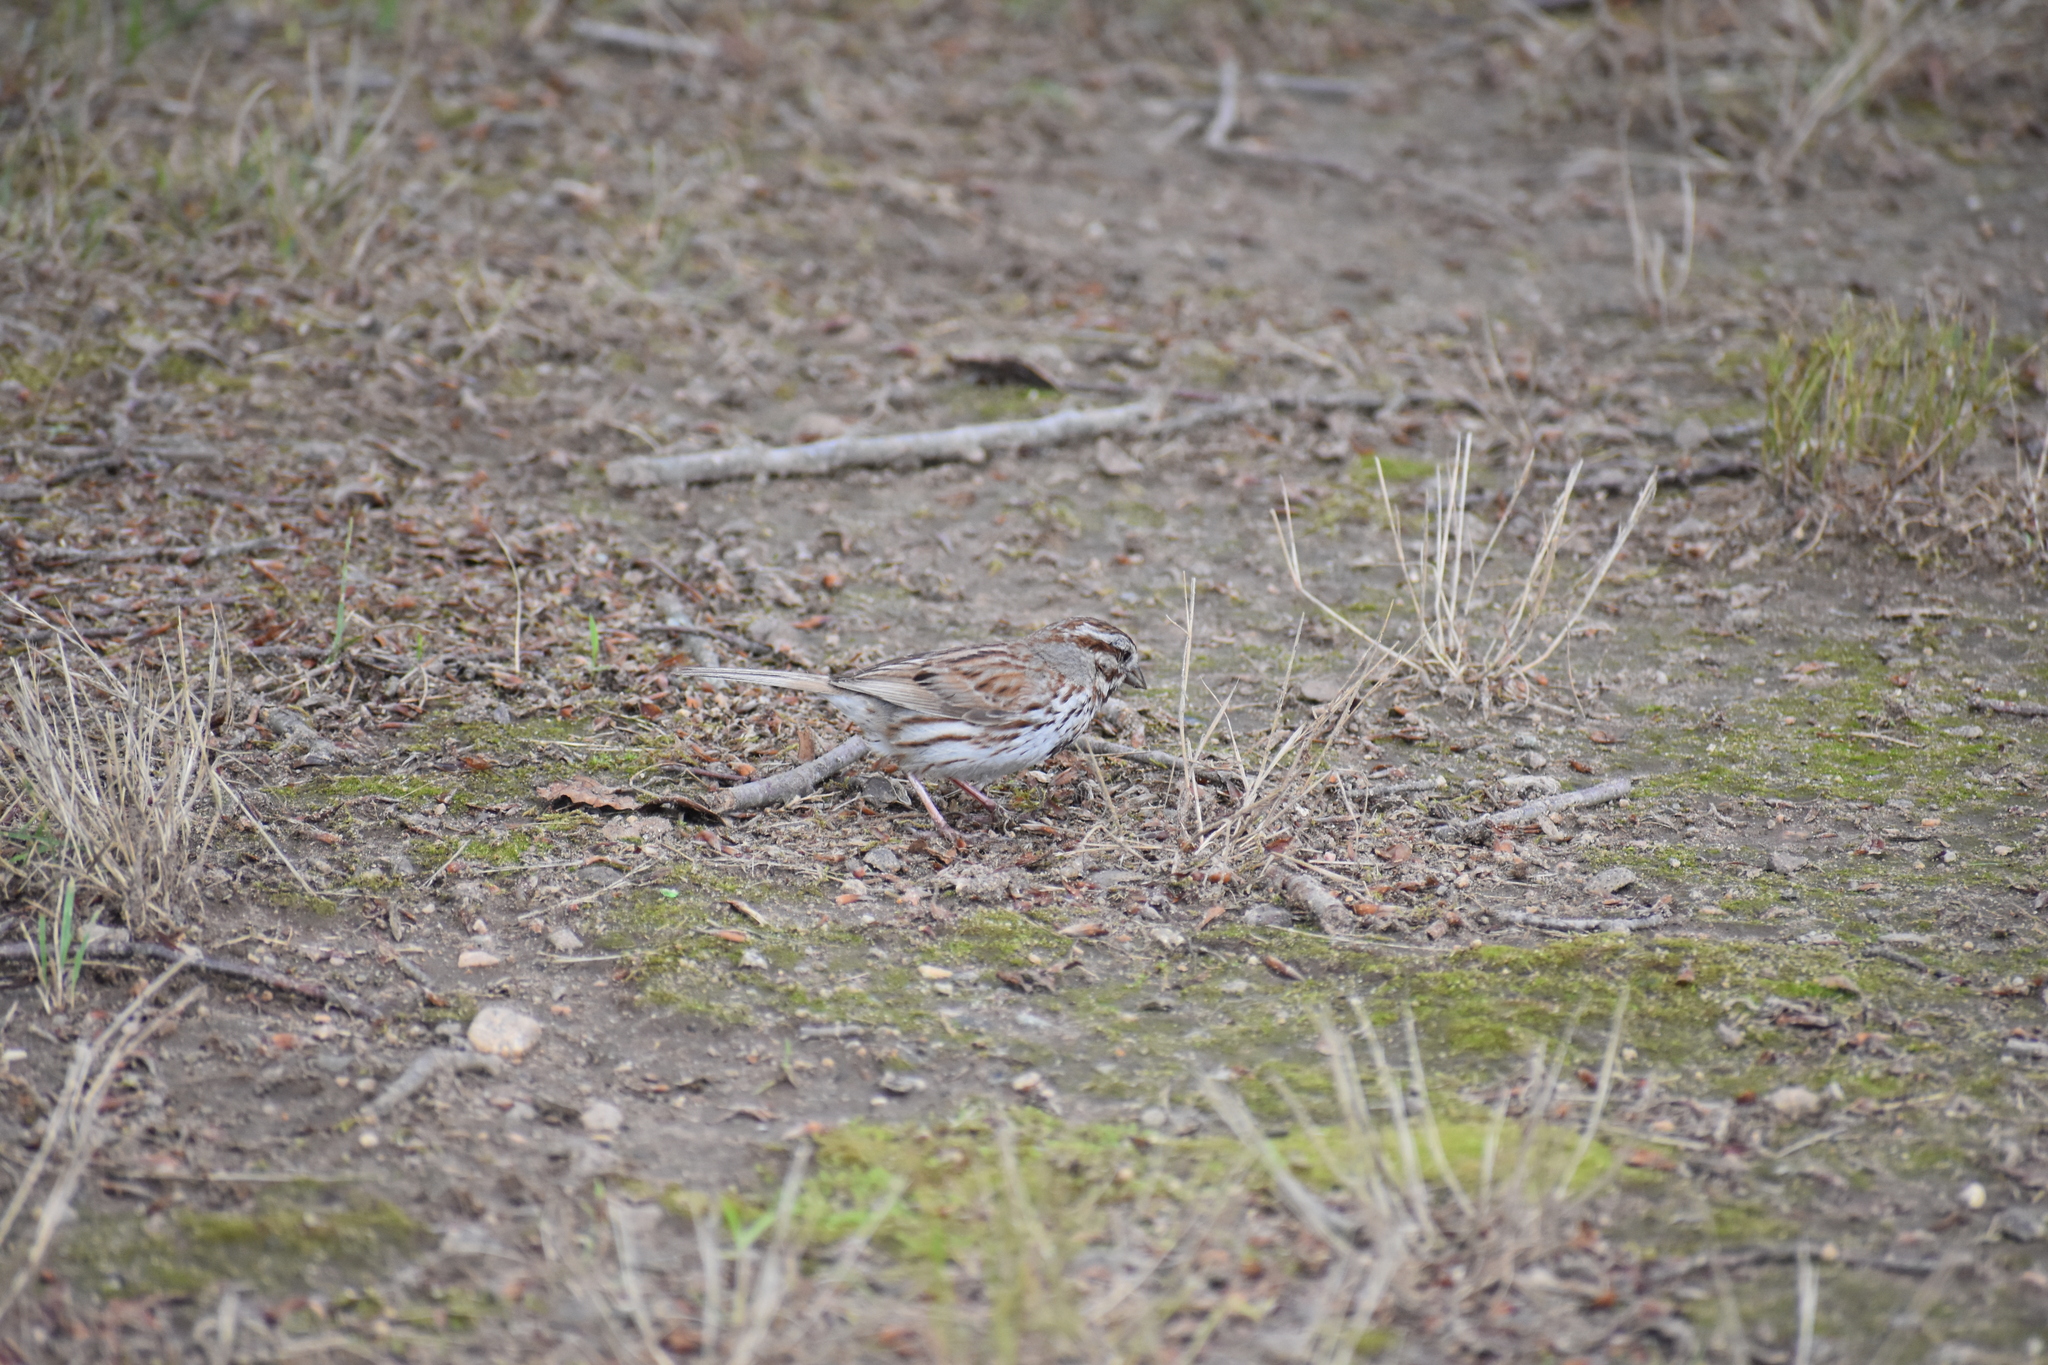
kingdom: Animalia
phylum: Chordata
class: Aves
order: Passeriformes
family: Passerellidae
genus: Melospiza
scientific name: Melospiza melodia
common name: Song sparrow
